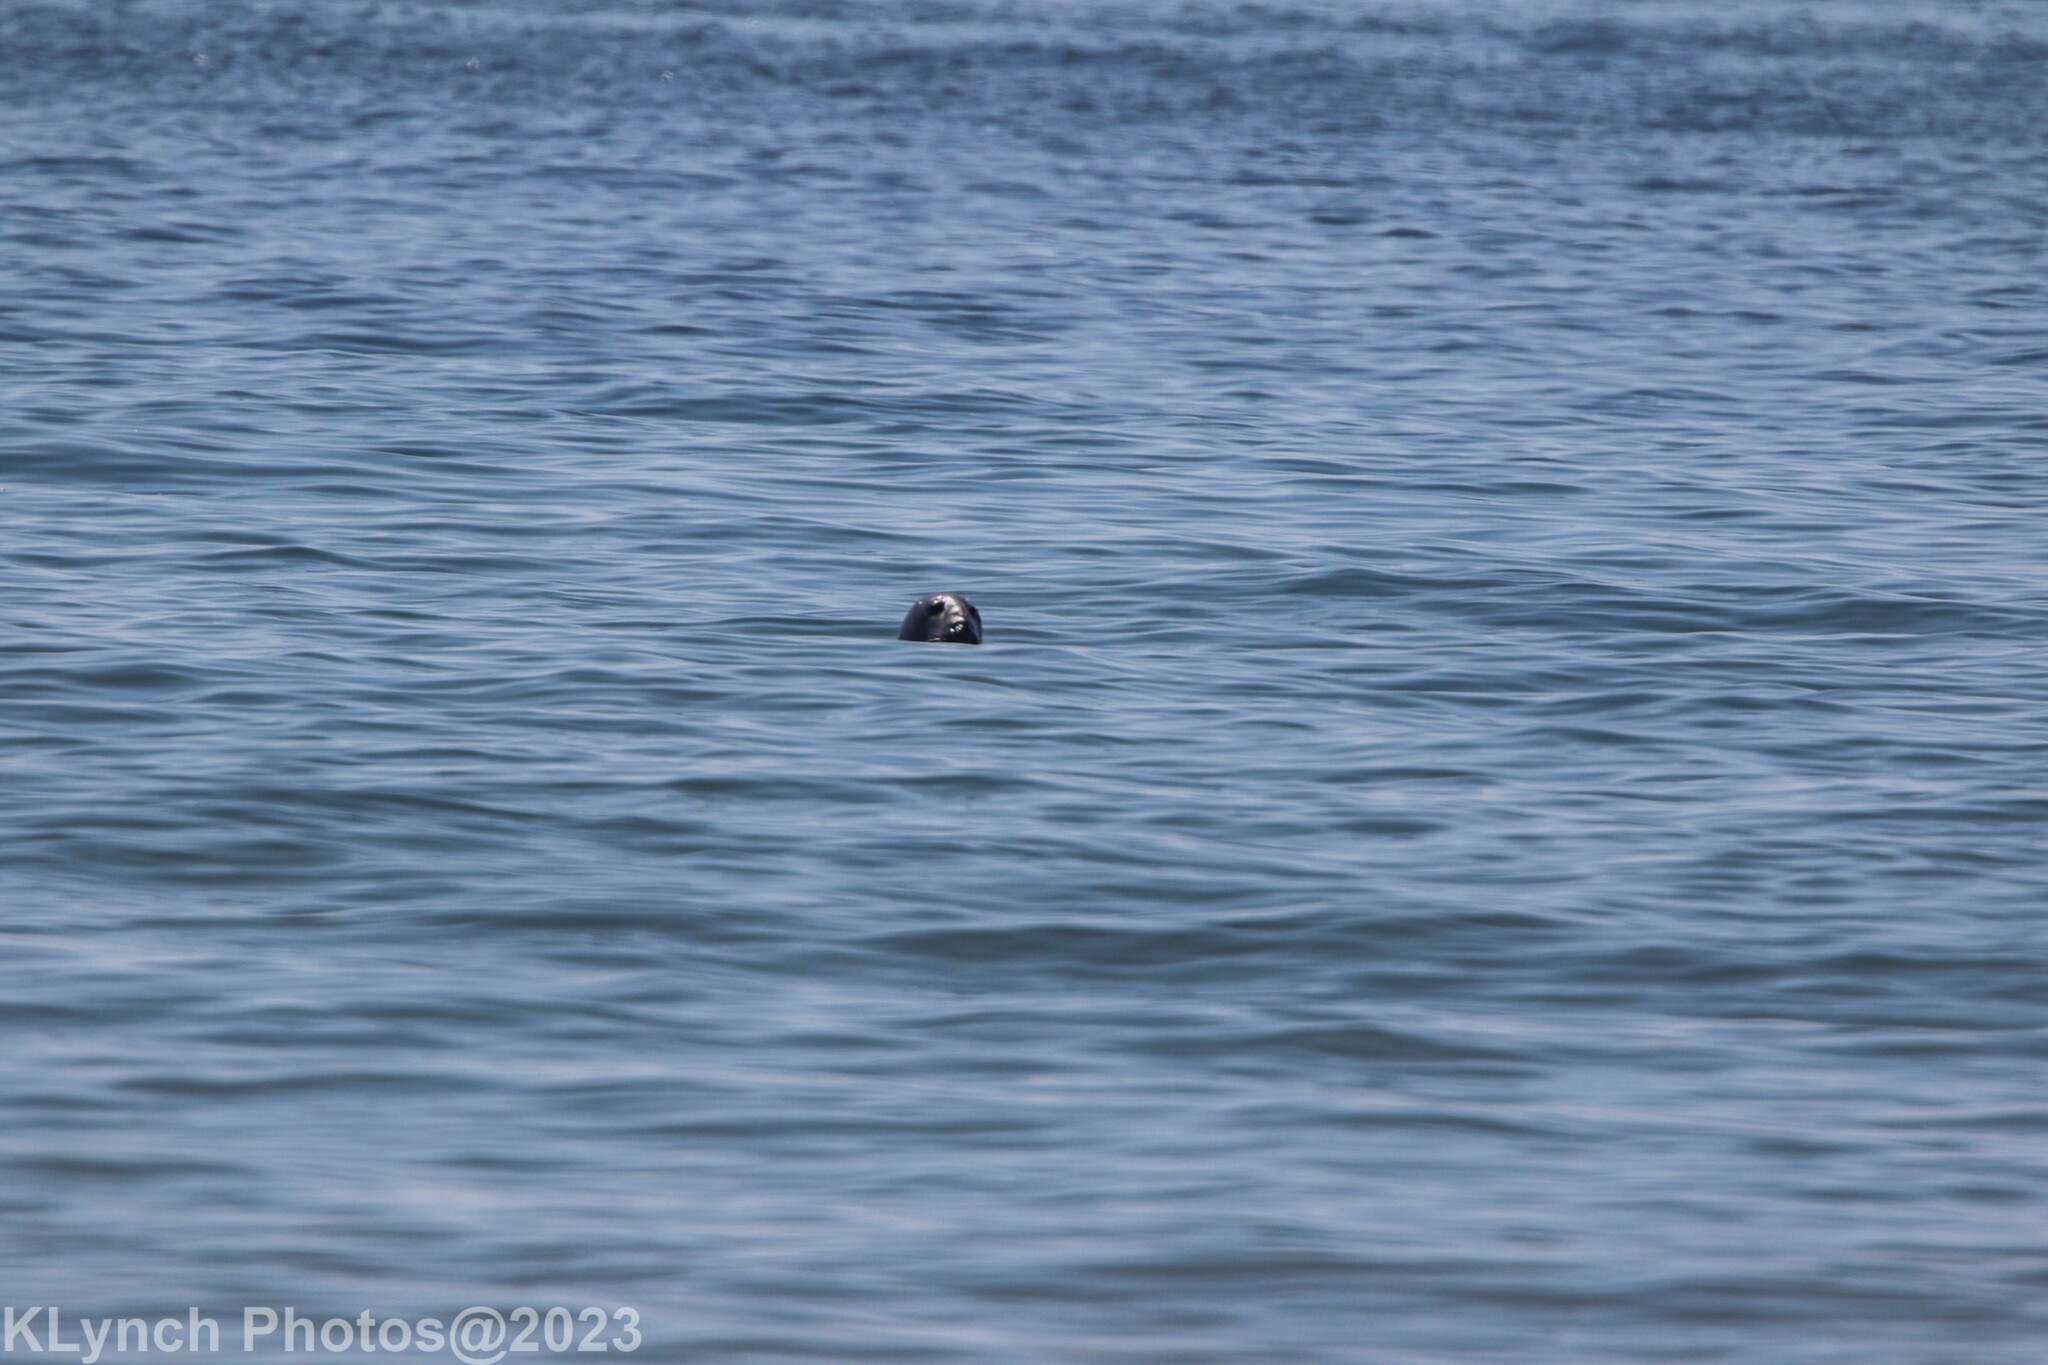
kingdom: Animalia
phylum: Chordata
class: Mammalia
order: Carnivora
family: Phocidae
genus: Halichoerus
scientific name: Halichoerus grypus
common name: Grey seal
